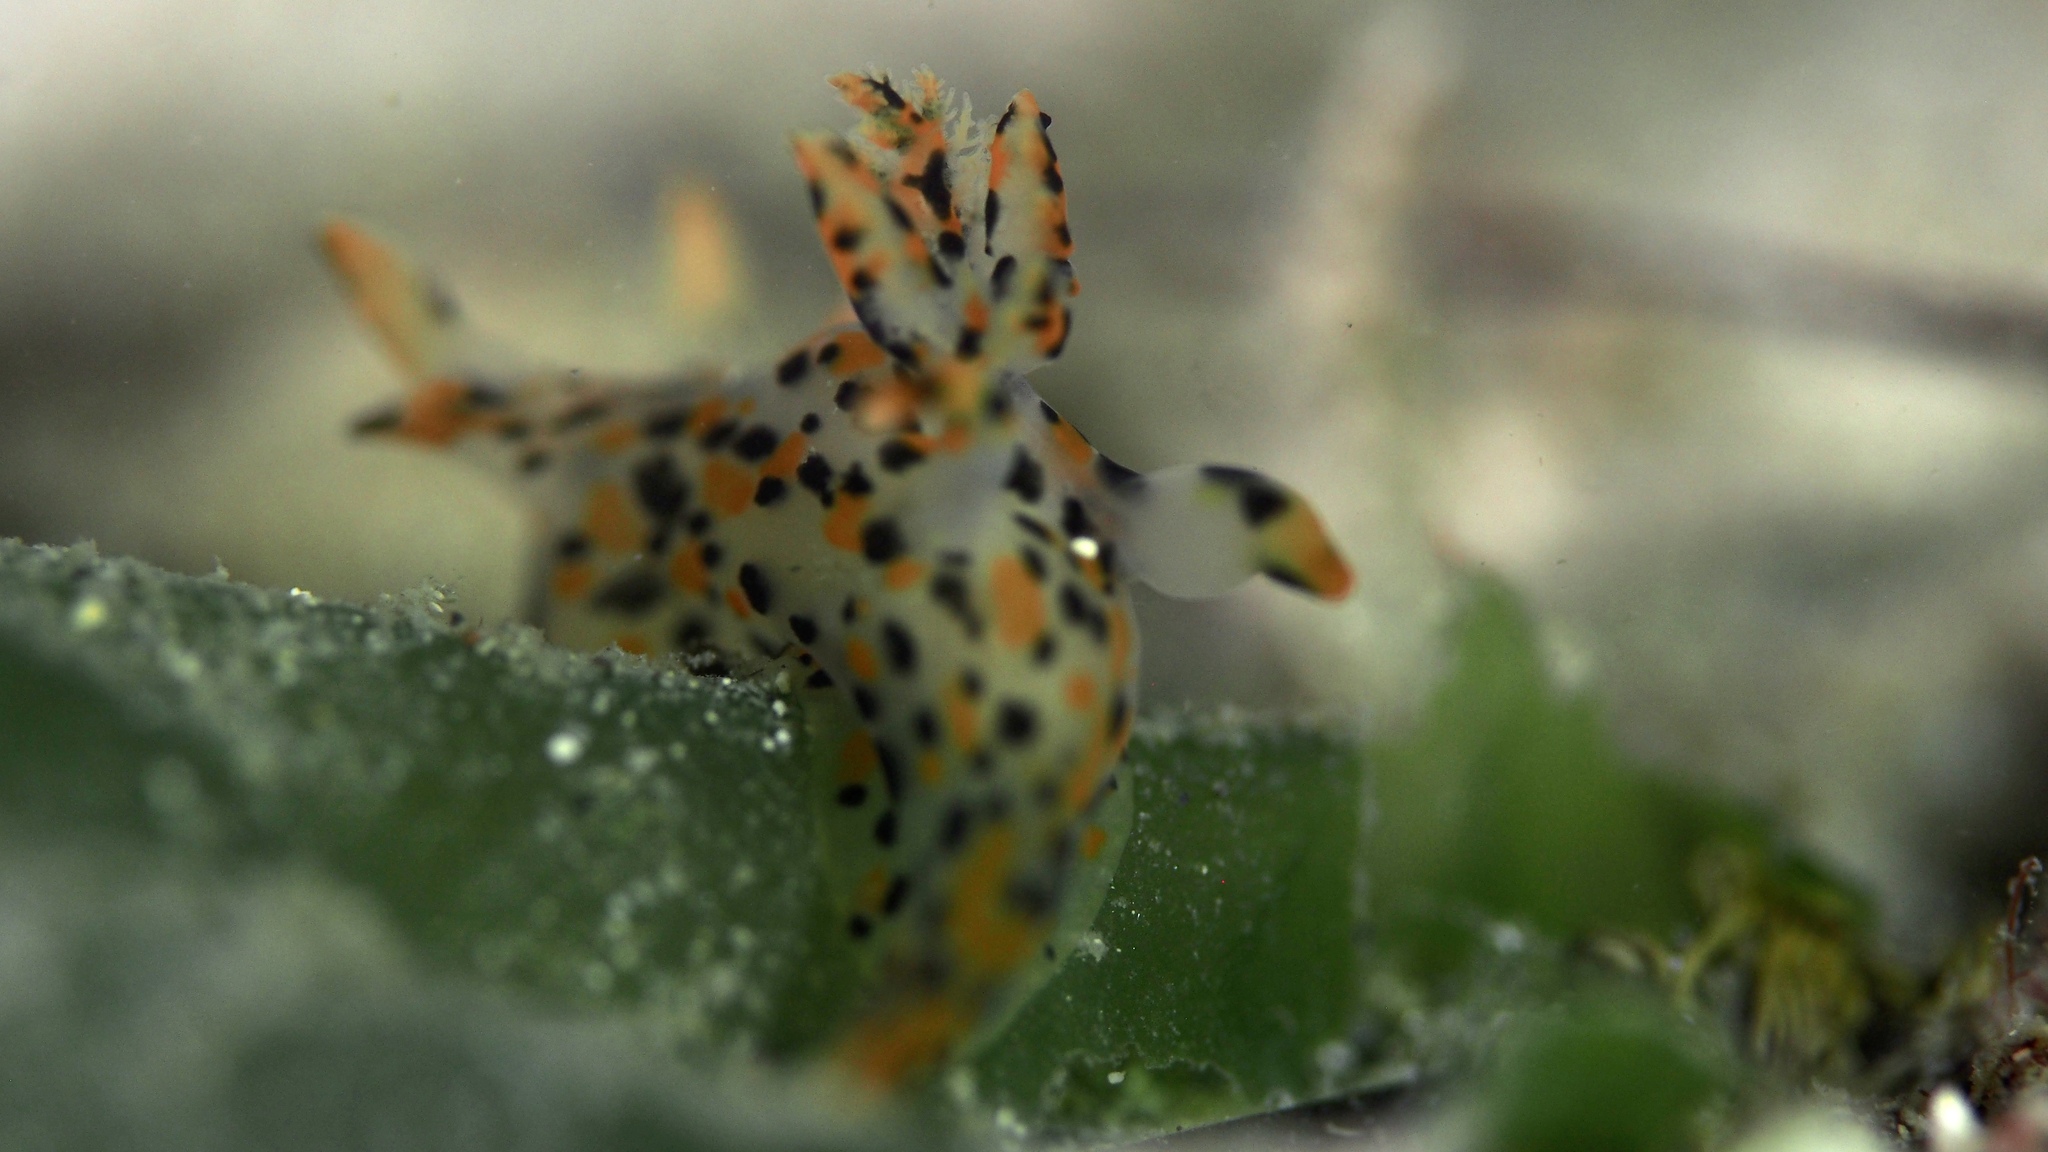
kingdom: Animalia
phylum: Mollusca
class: Gastropoda
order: Nudibranchia
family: Polyceridae
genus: Thecacera
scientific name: Thecacera pennigera
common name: Thecacera
